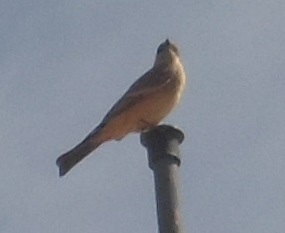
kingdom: Animalia
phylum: Chordata
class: Aves
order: Passeriformes
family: Tyrannidae
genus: Sayornis
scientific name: Sayornis saya
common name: Say's phoebe
